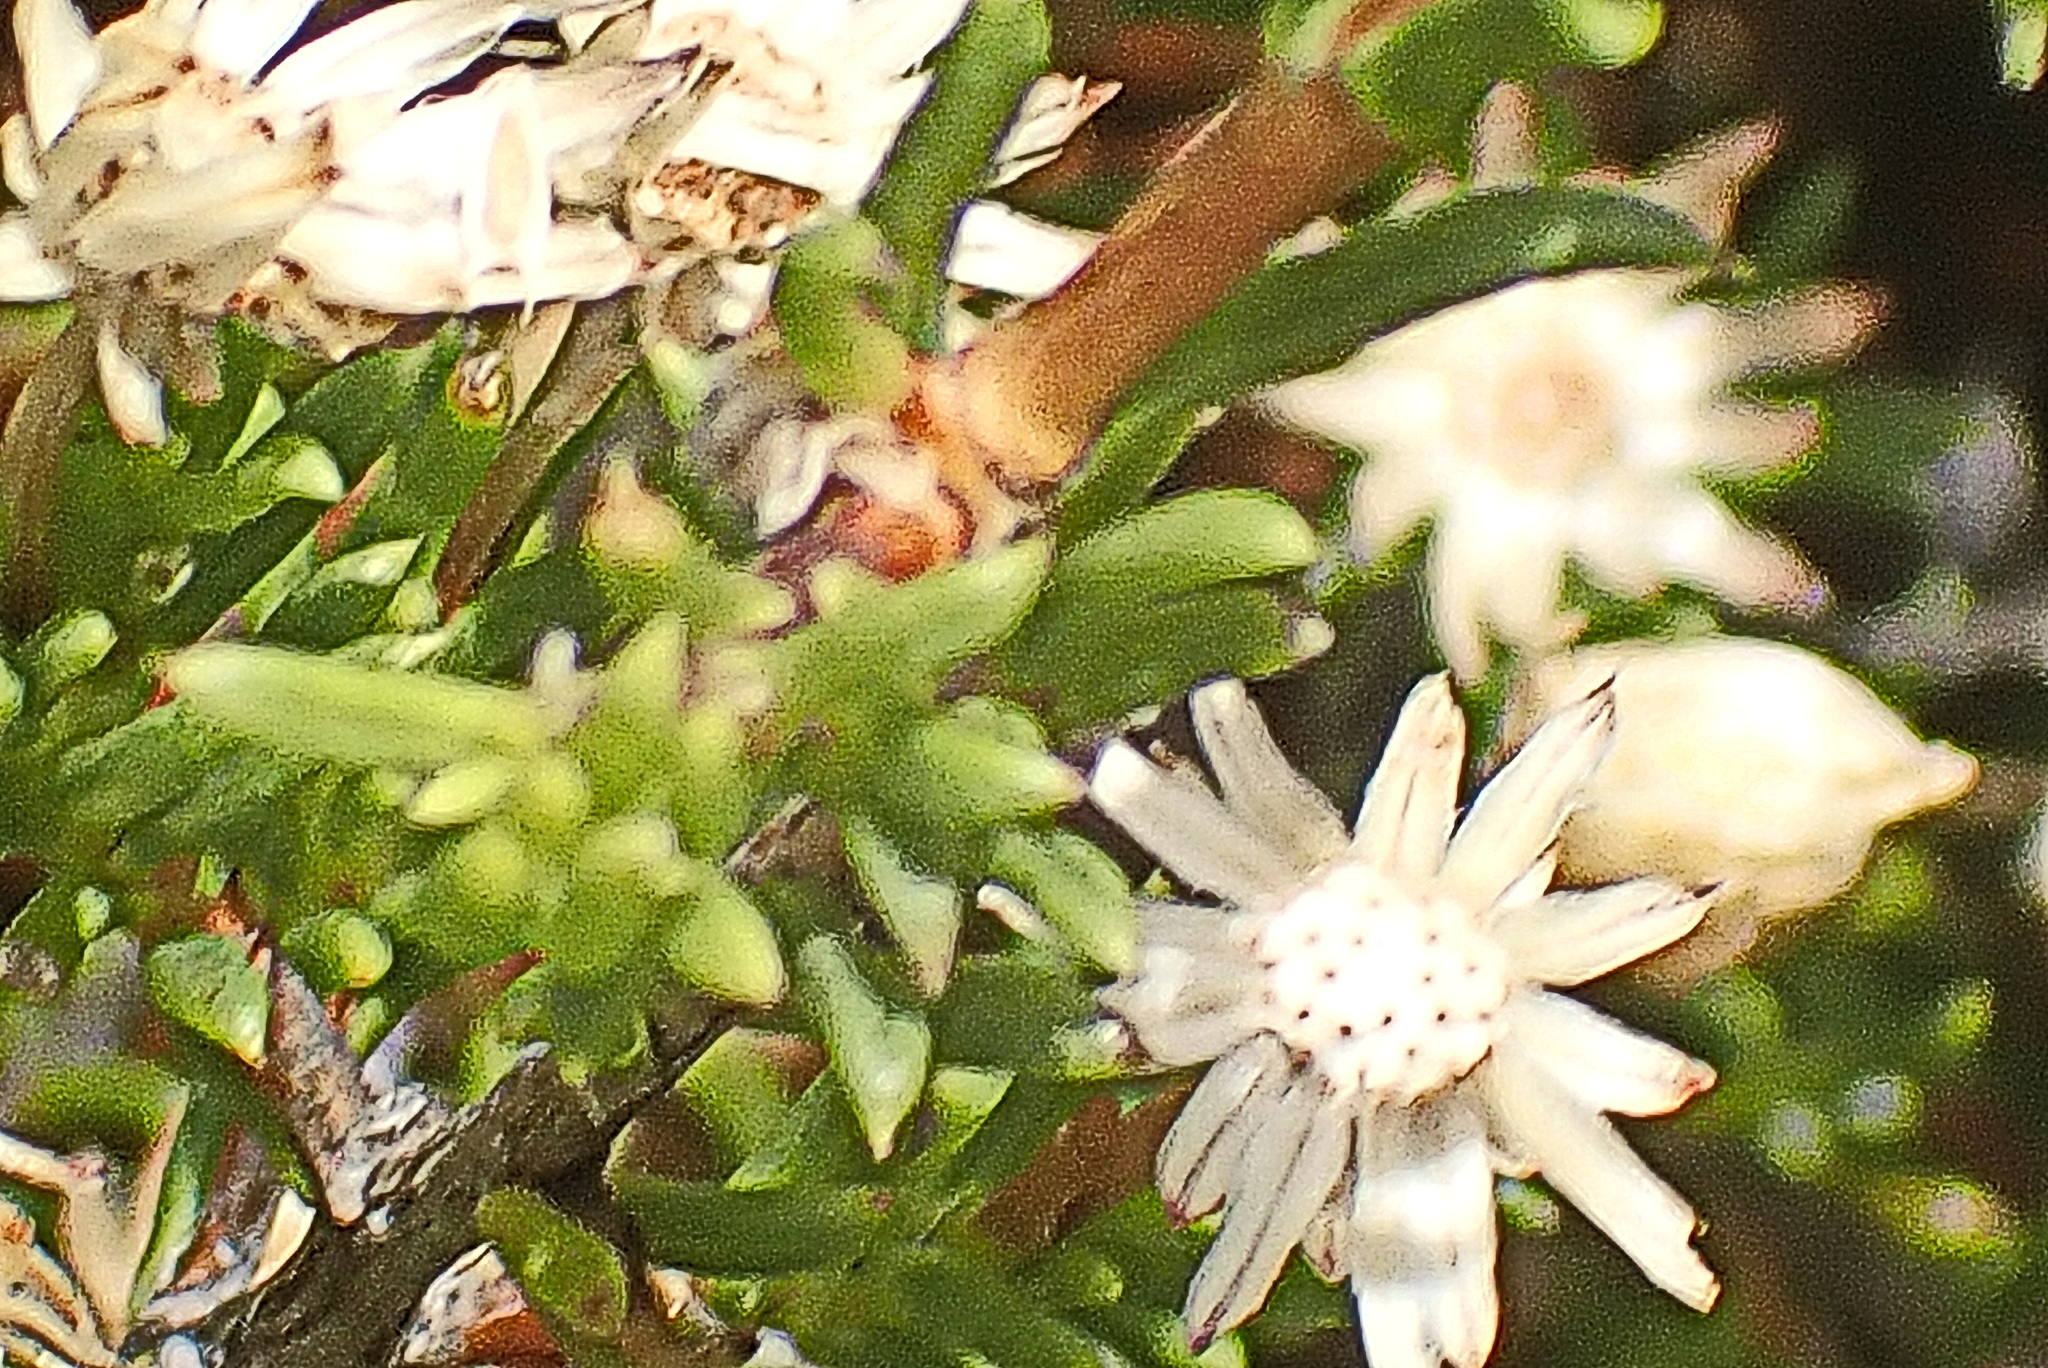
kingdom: Plantae
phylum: Tracheophyta
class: Magnoliopsida
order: Asterales
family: Asteraceae
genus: Felicia
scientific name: Felicia filifolia
